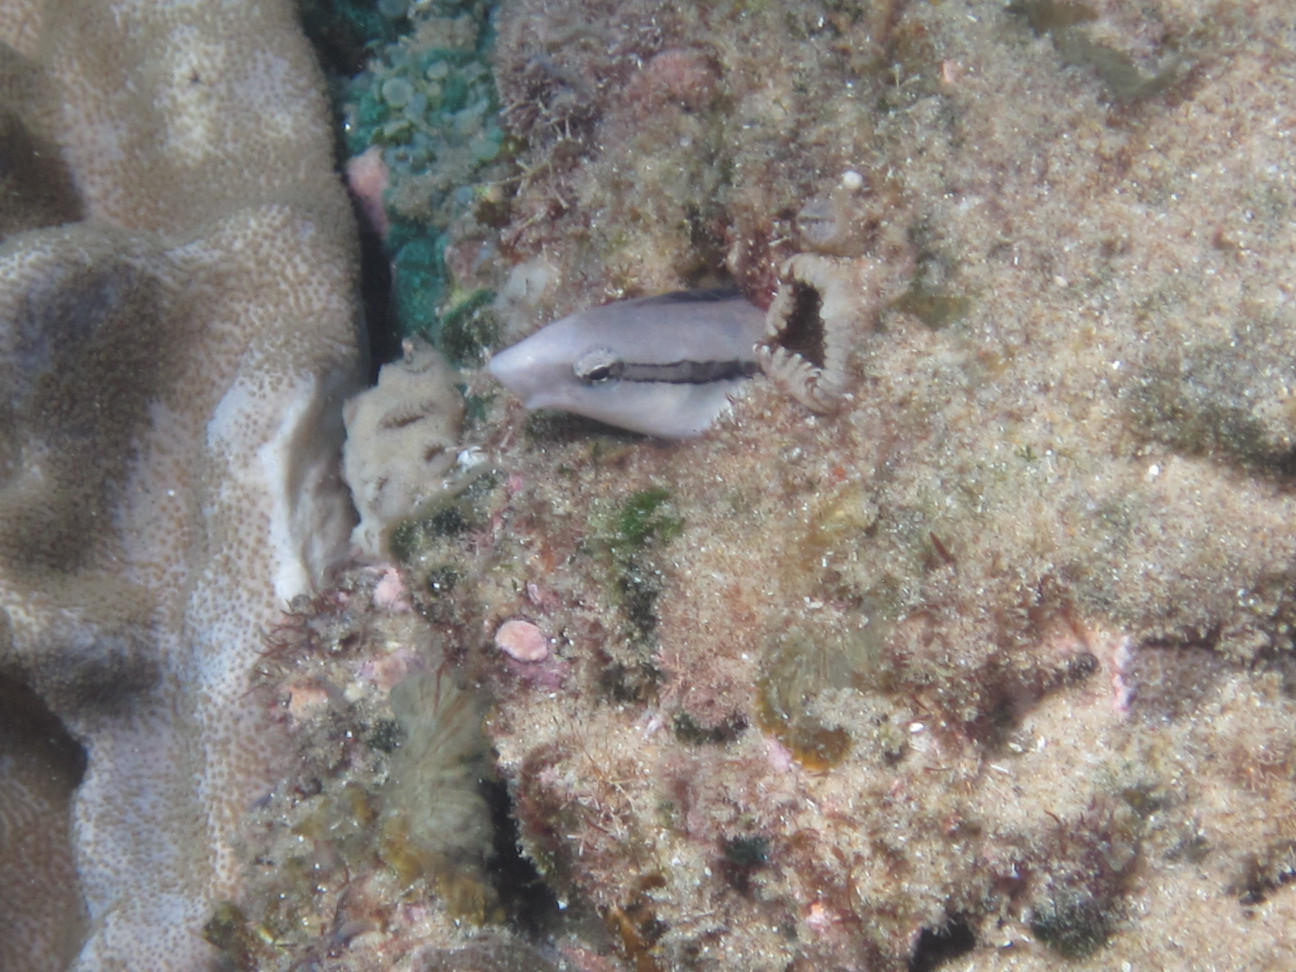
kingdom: Animalia
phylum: Chordata
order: Perciformes
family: Blenniidae
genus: Aspidontus
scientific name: Aspidontus taeniatus
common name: False cleanerfish
